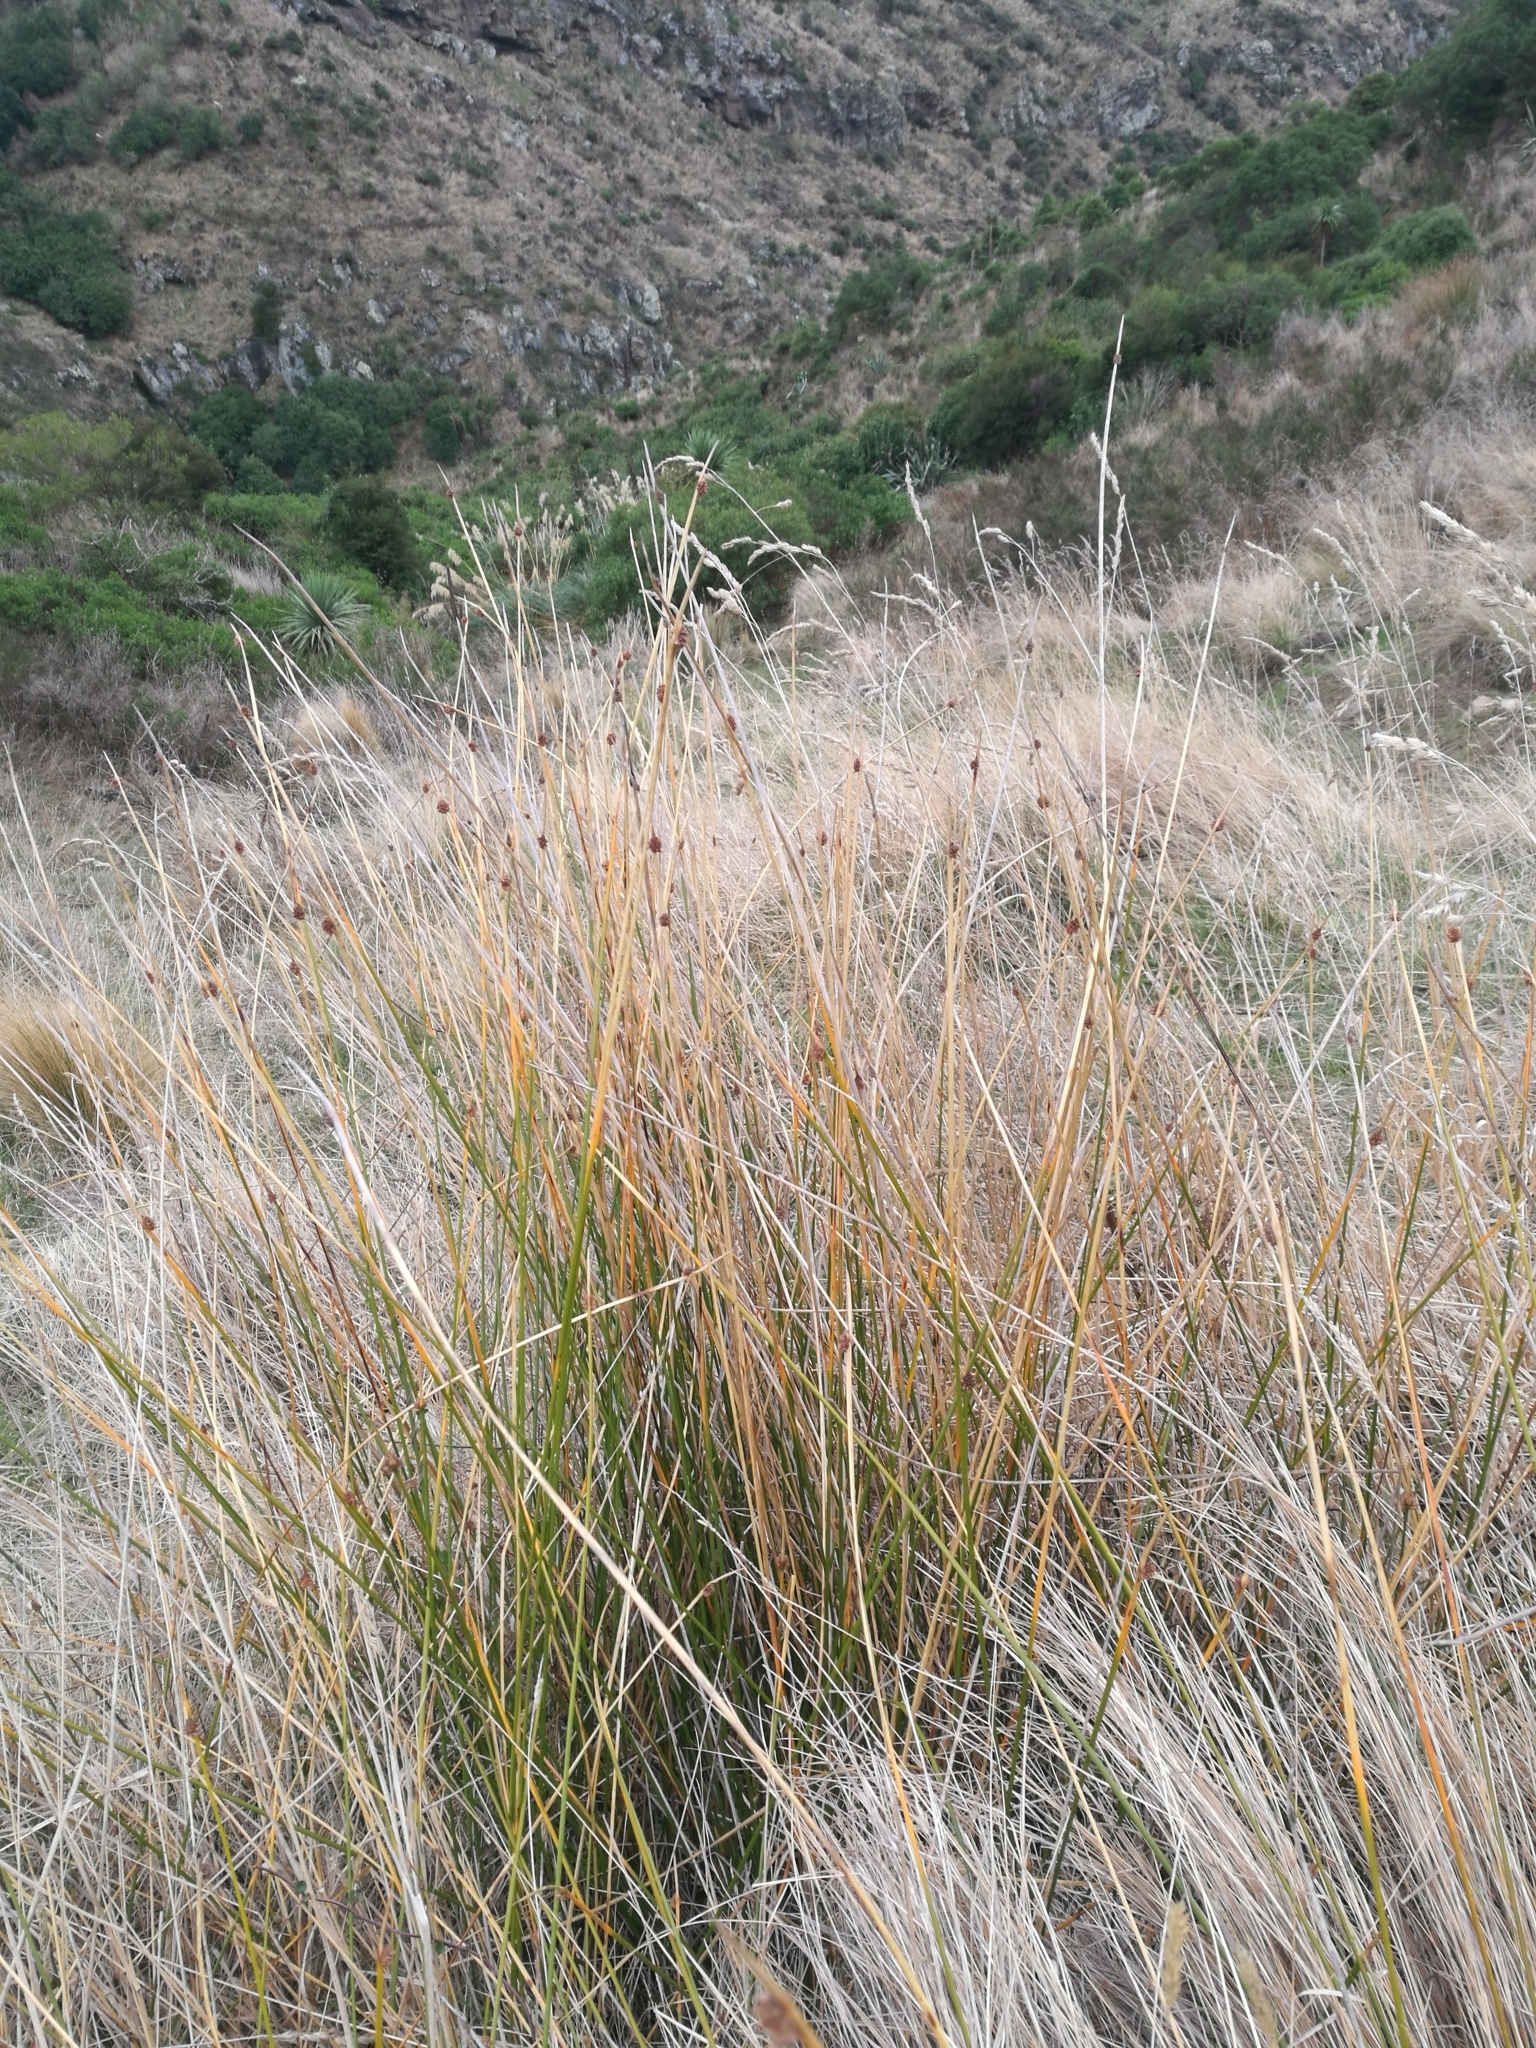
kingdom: Plantae
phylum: Tracheophyta
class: Liliopsida
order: Poales
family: Cyperaceae
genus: Ficinia
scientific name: Ficinia nodosa
